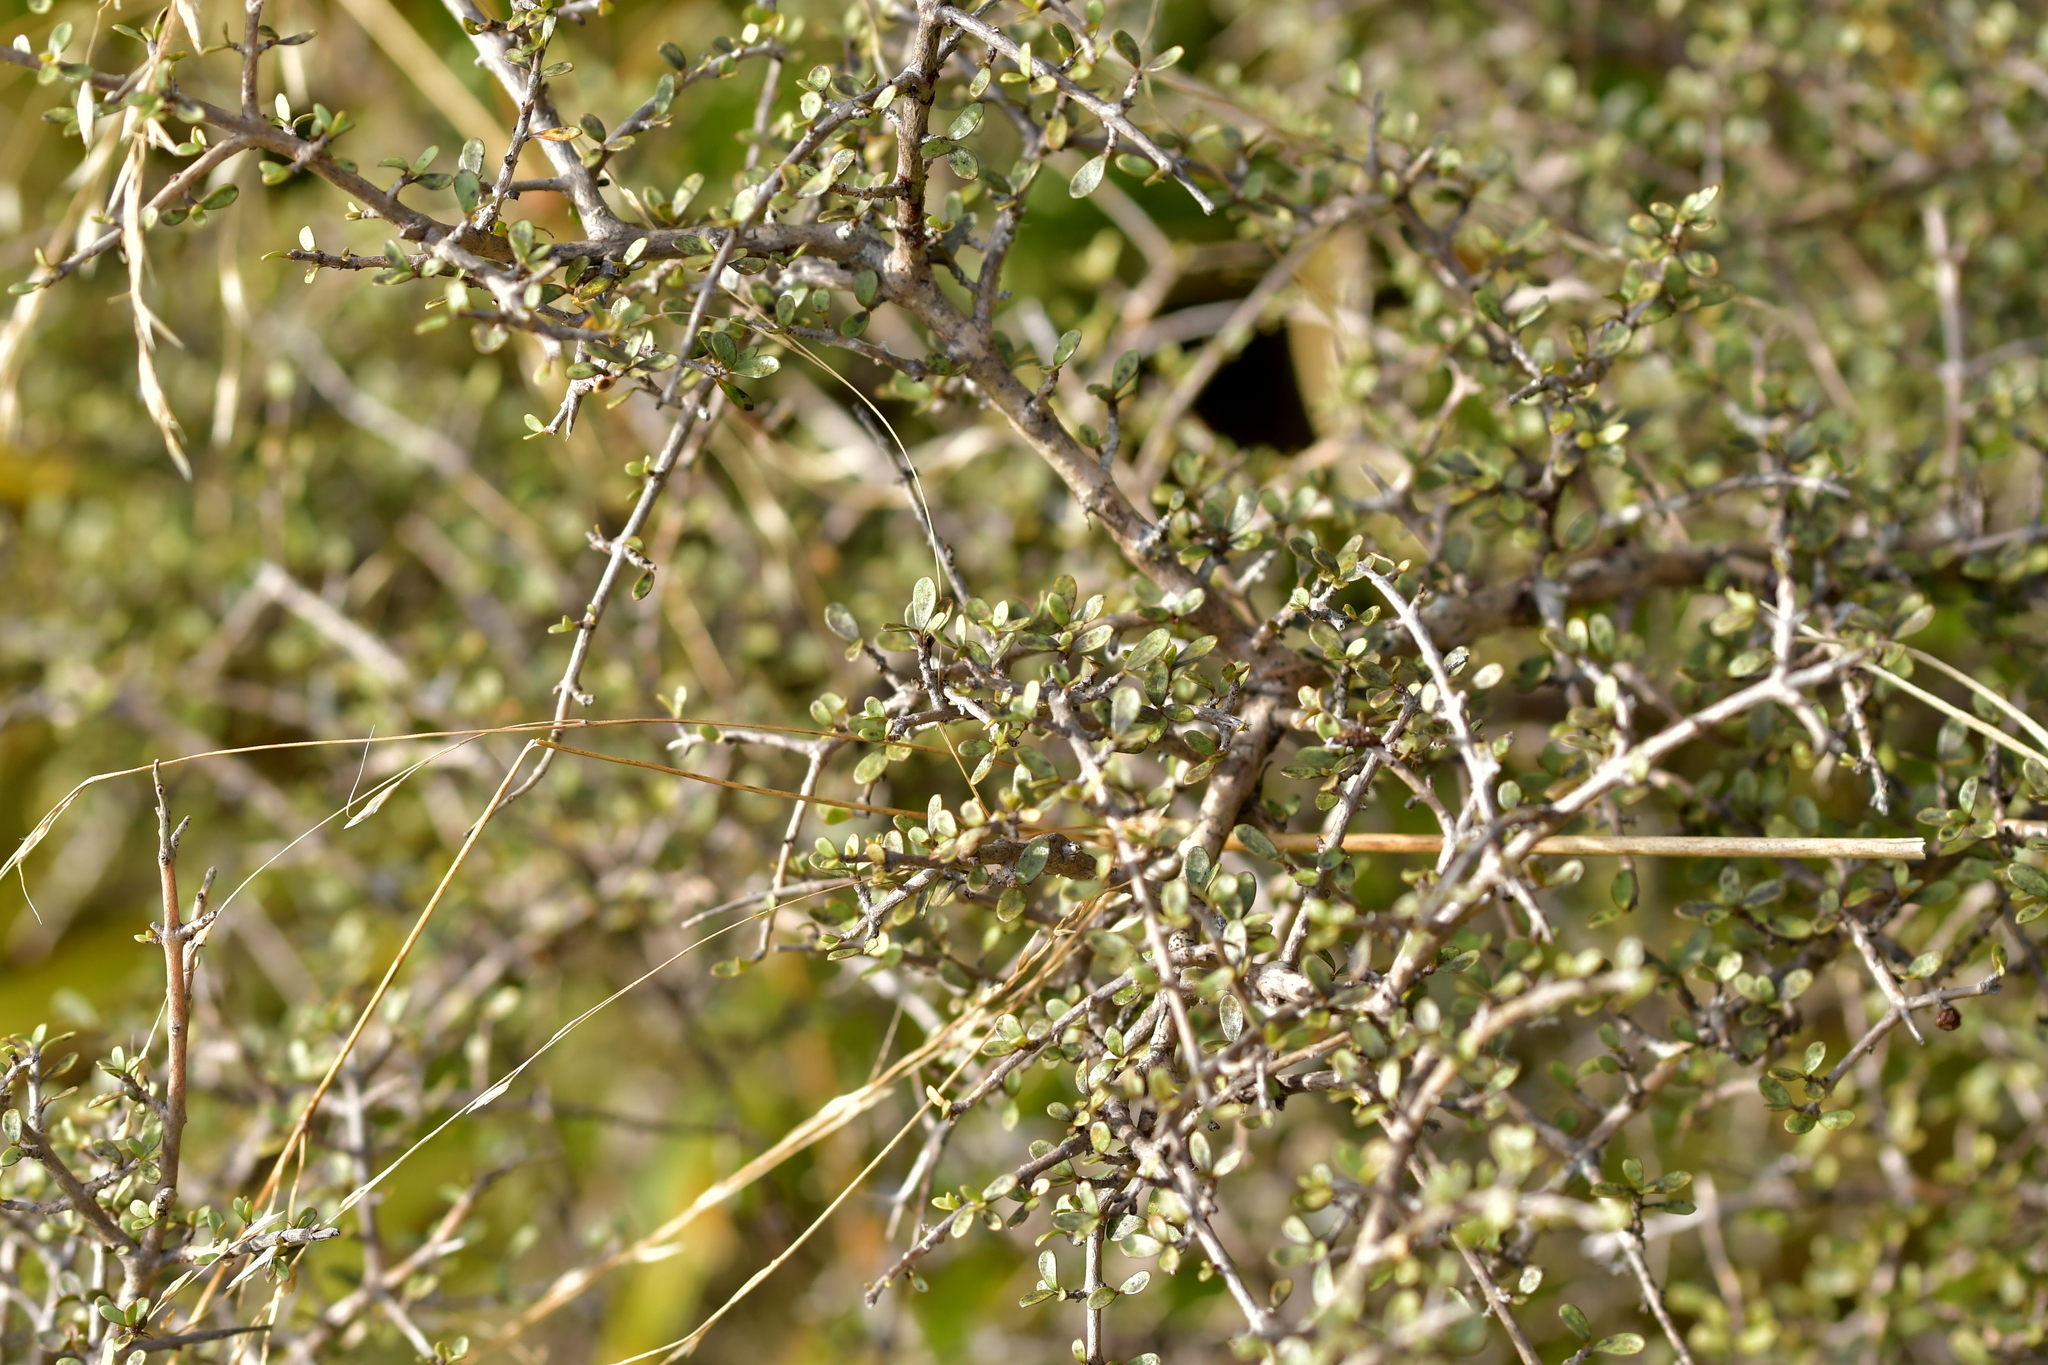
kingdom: Plantae
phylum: Tracheophyta
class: Magnoliopsida
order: Gentianales
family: Rubiaceae
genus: Coprosma
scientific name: Coprosma dumosa
